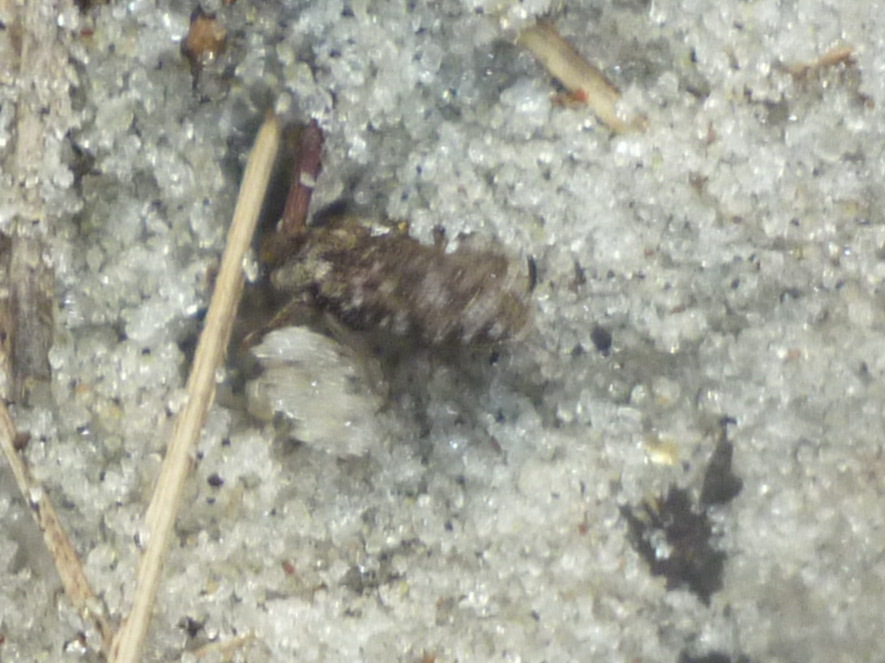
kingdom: Animalia
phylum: Arthropoda
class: Insecta
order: Coleoptera
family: Tenebrionidae
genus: Leichenum
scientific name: Leichenum canaliculatum
